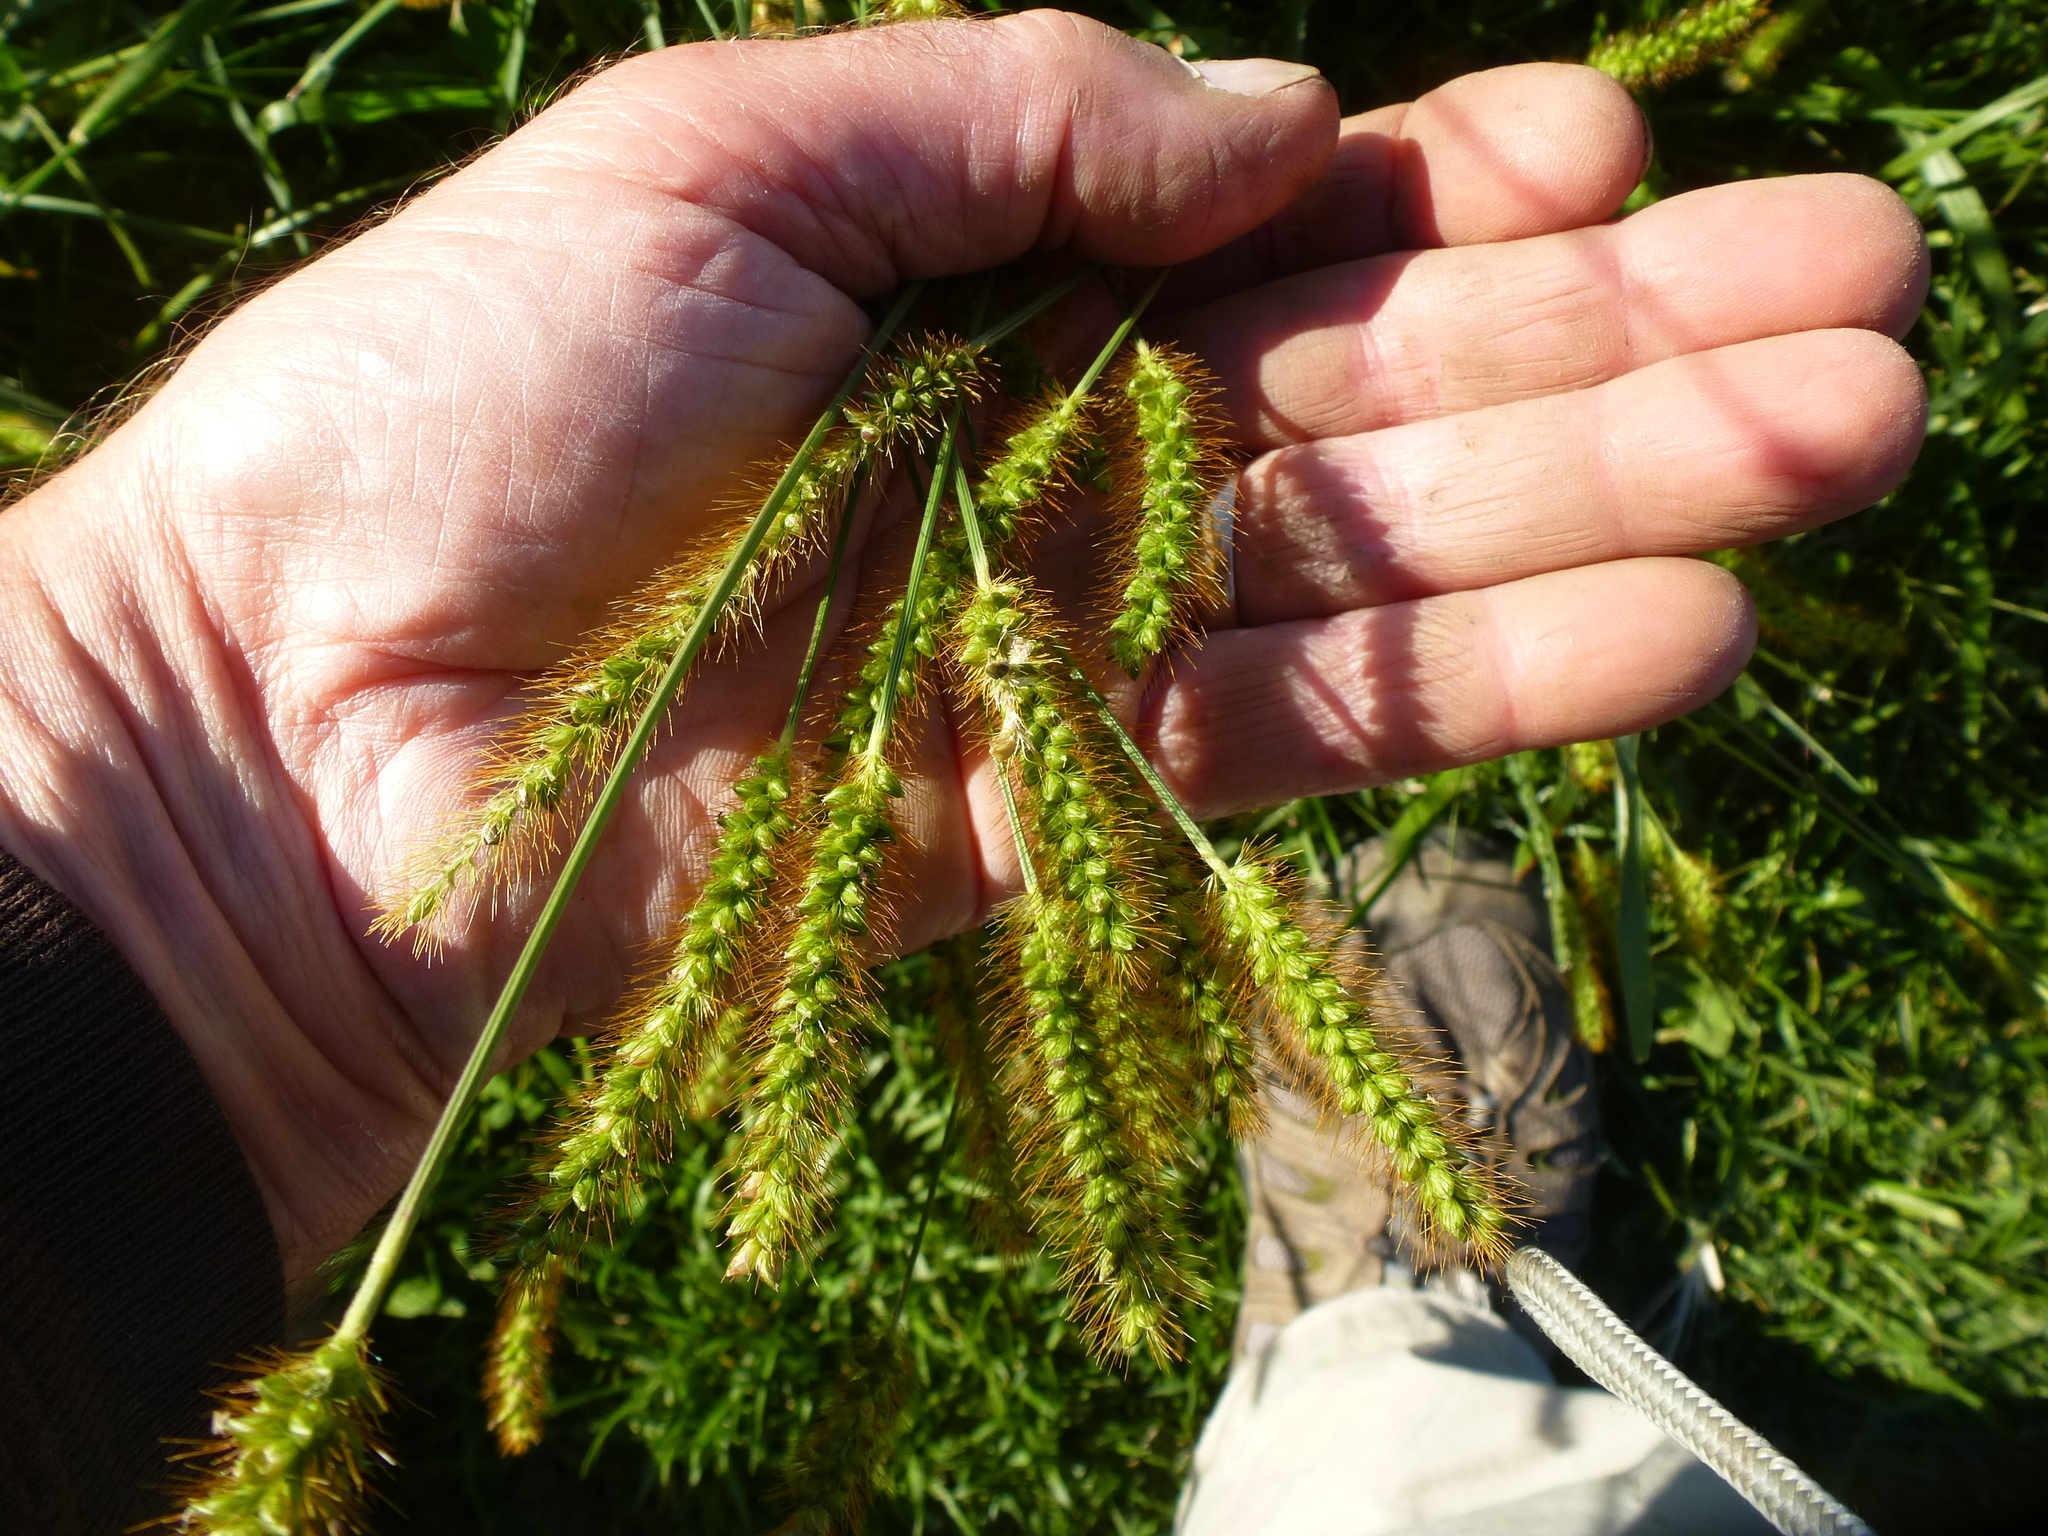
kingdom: Plantae
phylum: Tracheophyta
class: Liliopsida
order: Poales
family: Poaceae
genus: Setaria
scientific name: Setaria pumila
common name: Yellow bristle-grass
